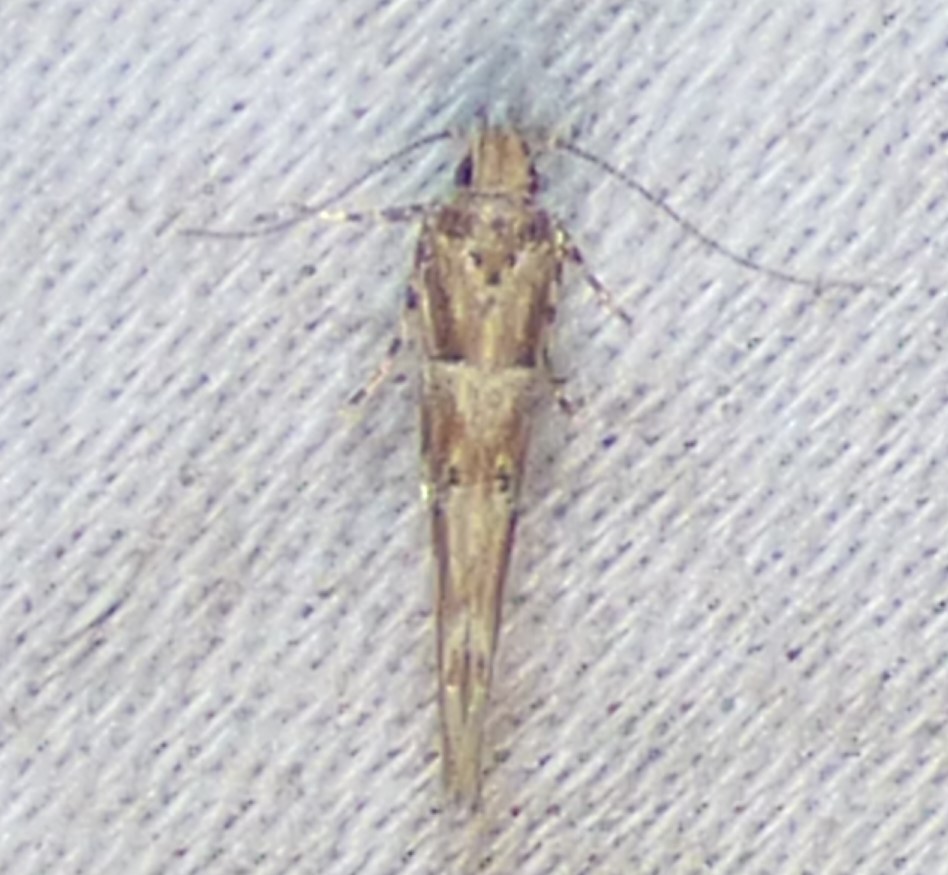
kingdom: Animalia
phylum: Arthropoda
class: Insecta
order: Lepidoptera
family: Cosmopterigidae
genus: Anatrachyntis
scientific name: Anatrachyntis badia
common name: Moth
